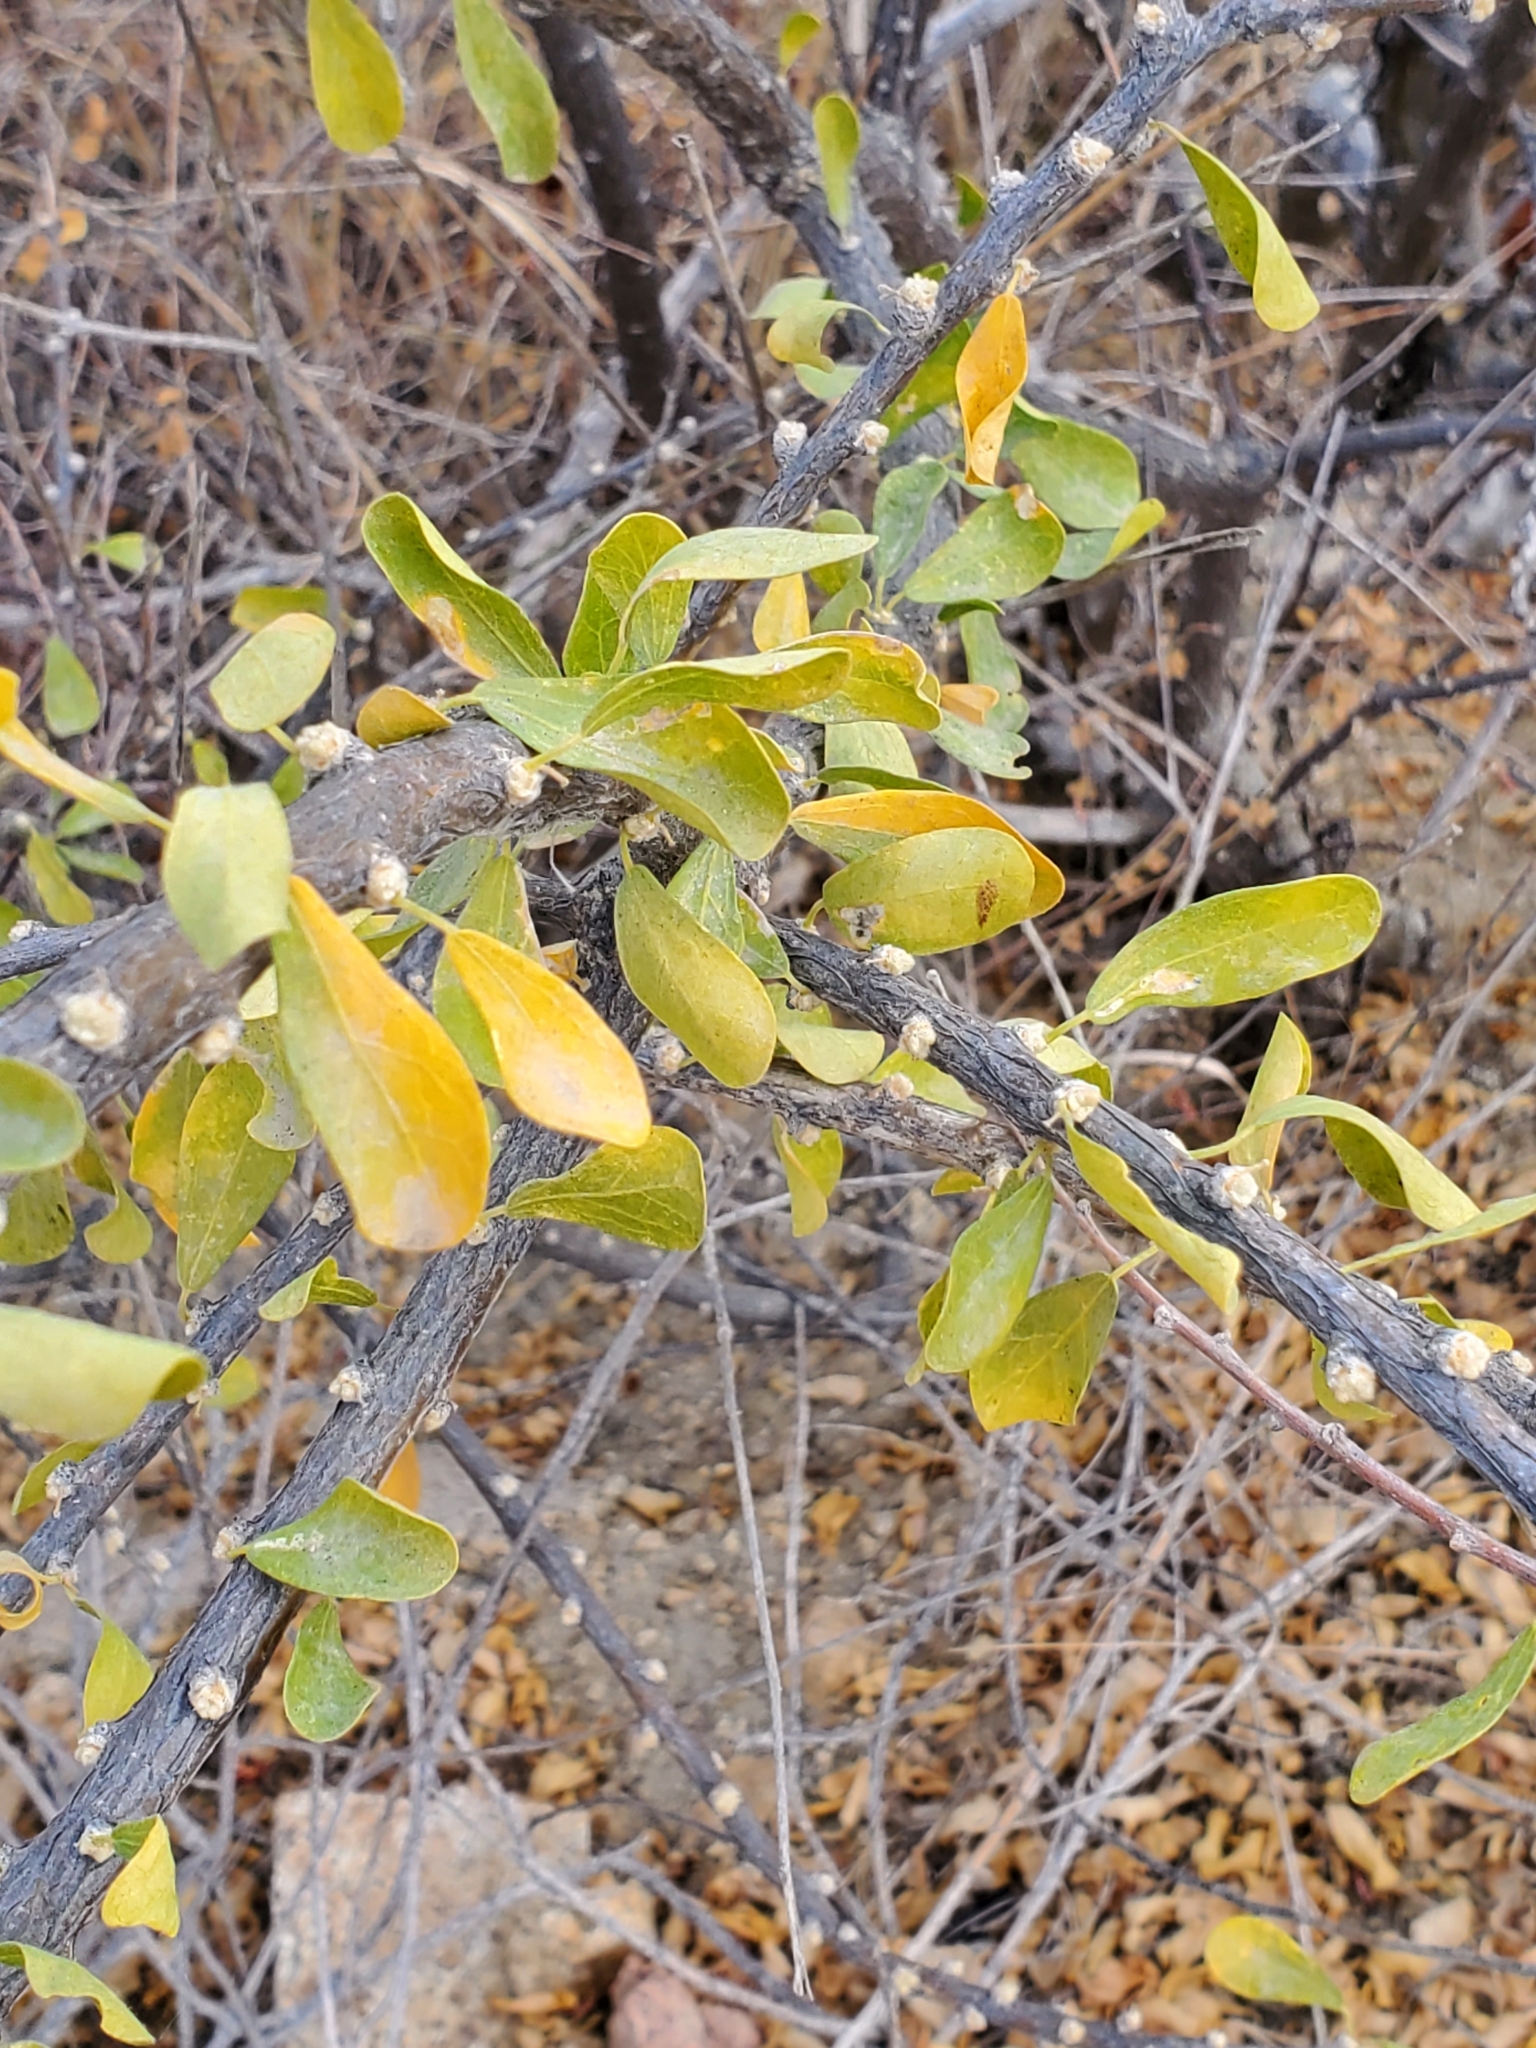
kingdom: Plantae
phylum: Tracheophyta
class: Magnoliopsida
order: Malpighiales
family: Euphorbiaceae
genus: Adelia
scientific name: Adelia brandegeei
